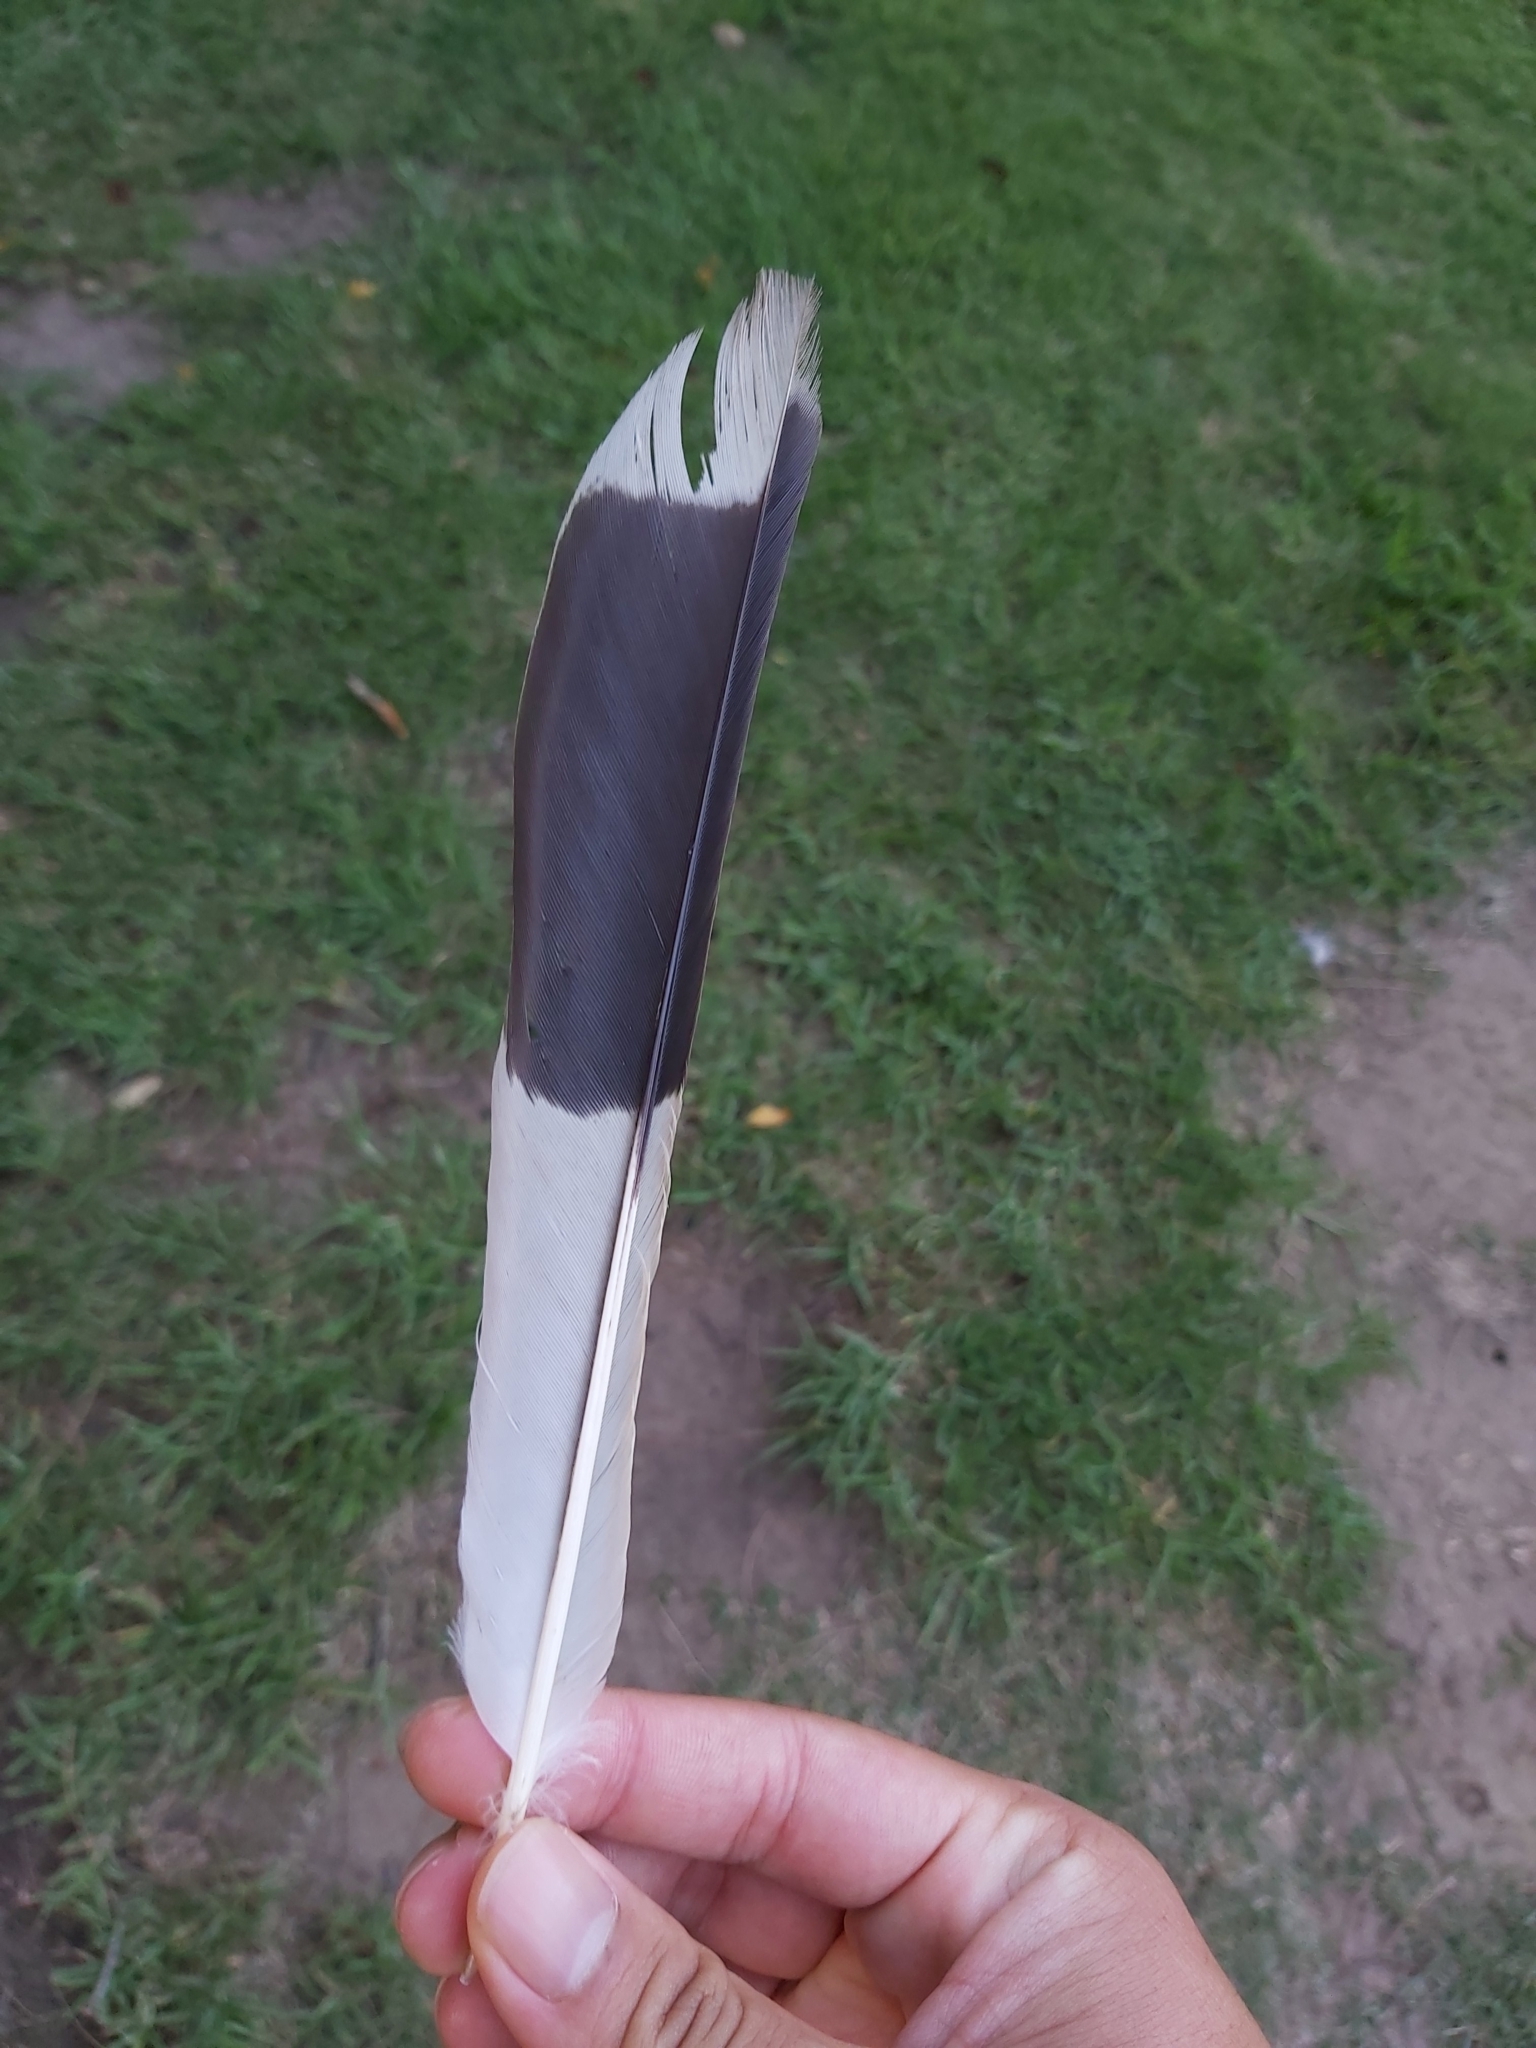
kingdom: Animalia
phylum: Chordata
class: Aves
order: Passeriformes
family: Cracticidae
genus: Strepera
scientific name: Strepera graculina
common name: Pied currawong
